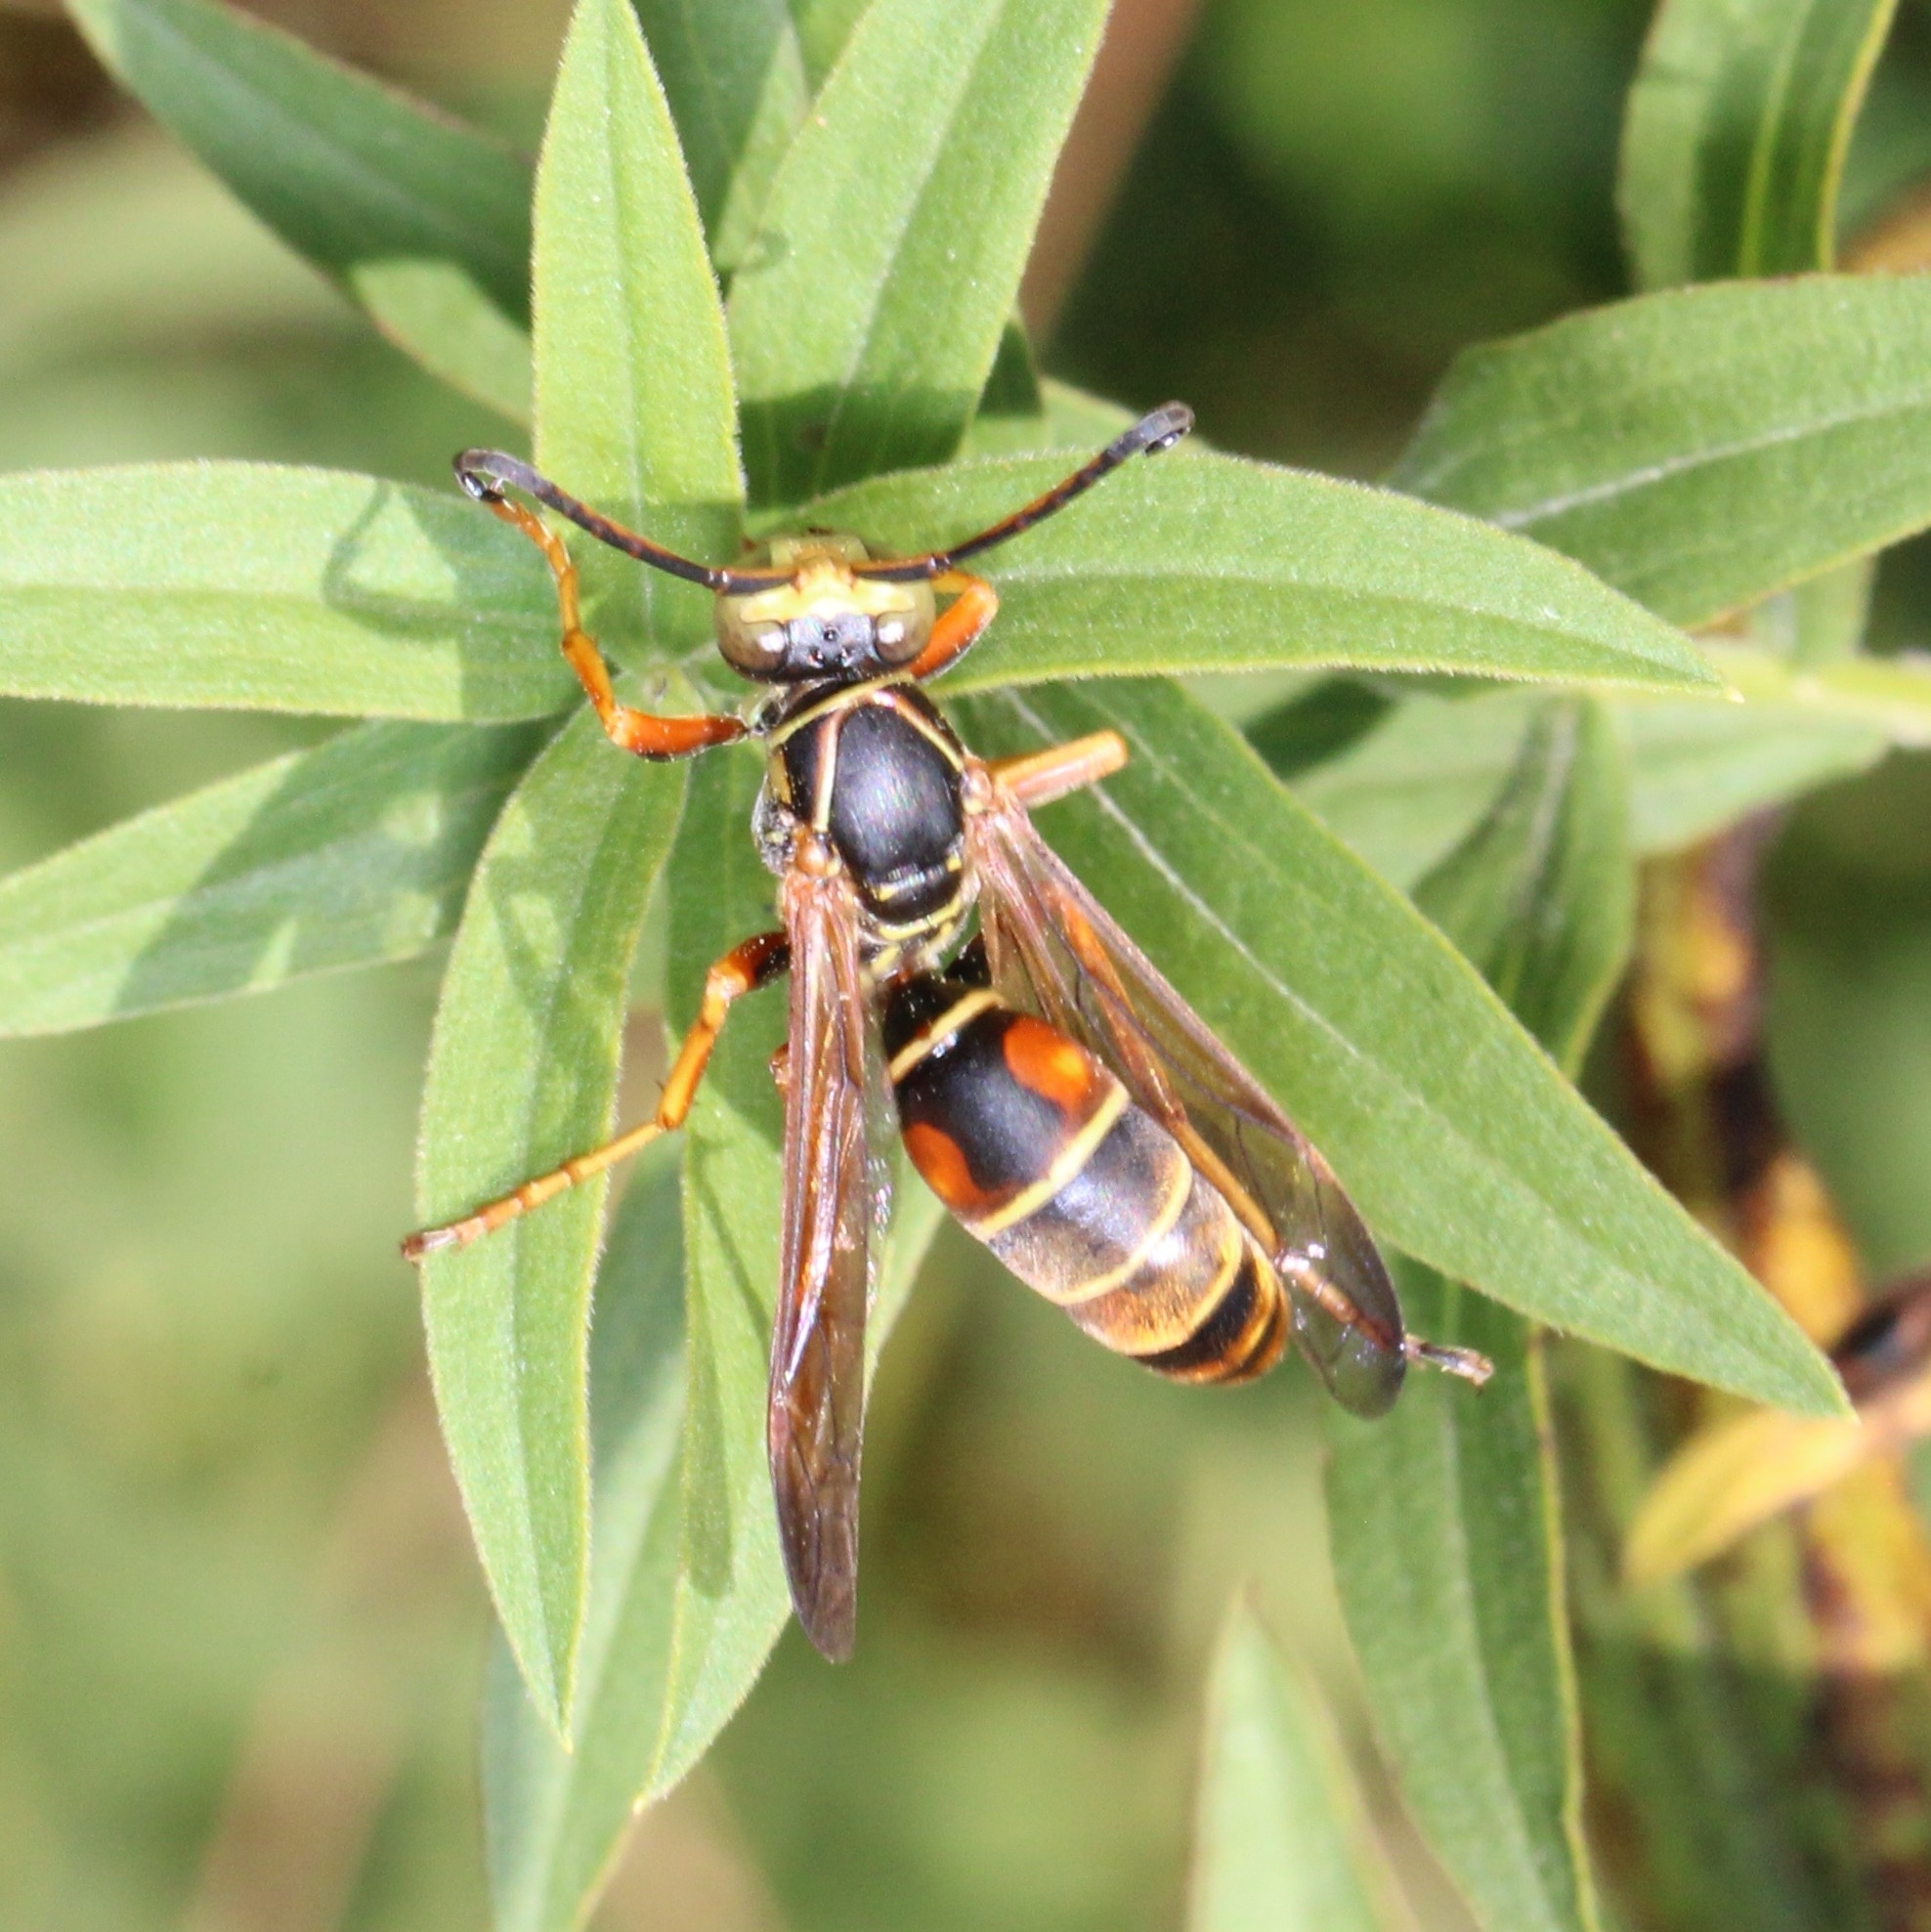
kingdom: Animalia
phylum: Arthropoda
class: Insecta
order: Hymenoptera
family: Eumenidae
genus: Polistes
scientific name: Polistes fuscatus
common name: Dark paper wasp
